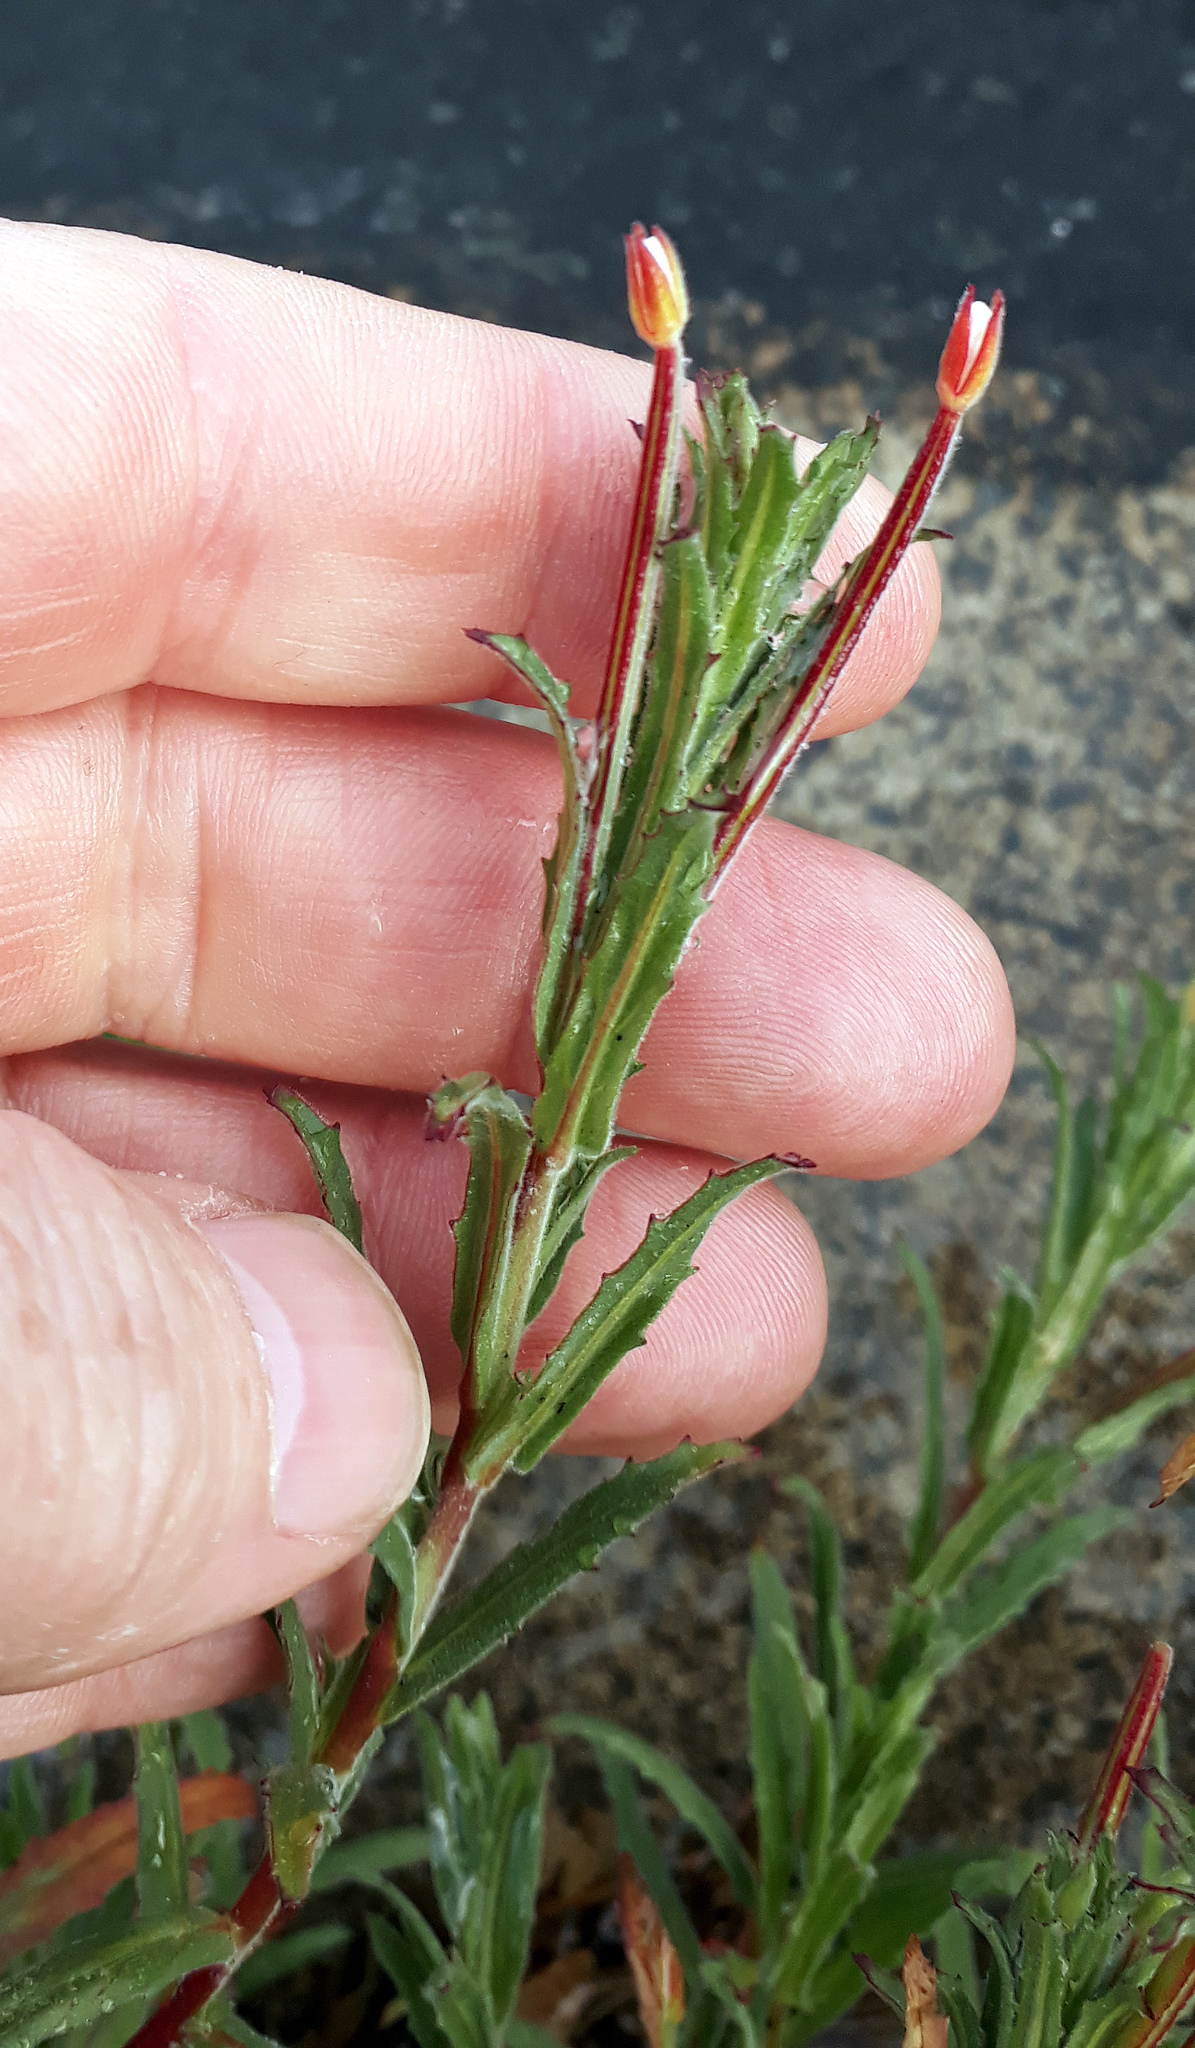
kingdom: Plantae
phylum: Tracheophyta
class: Magnoliopsida
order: Myrtales
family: Onagraceae
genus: Epilobium
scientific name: Epilobium hirtigerum
